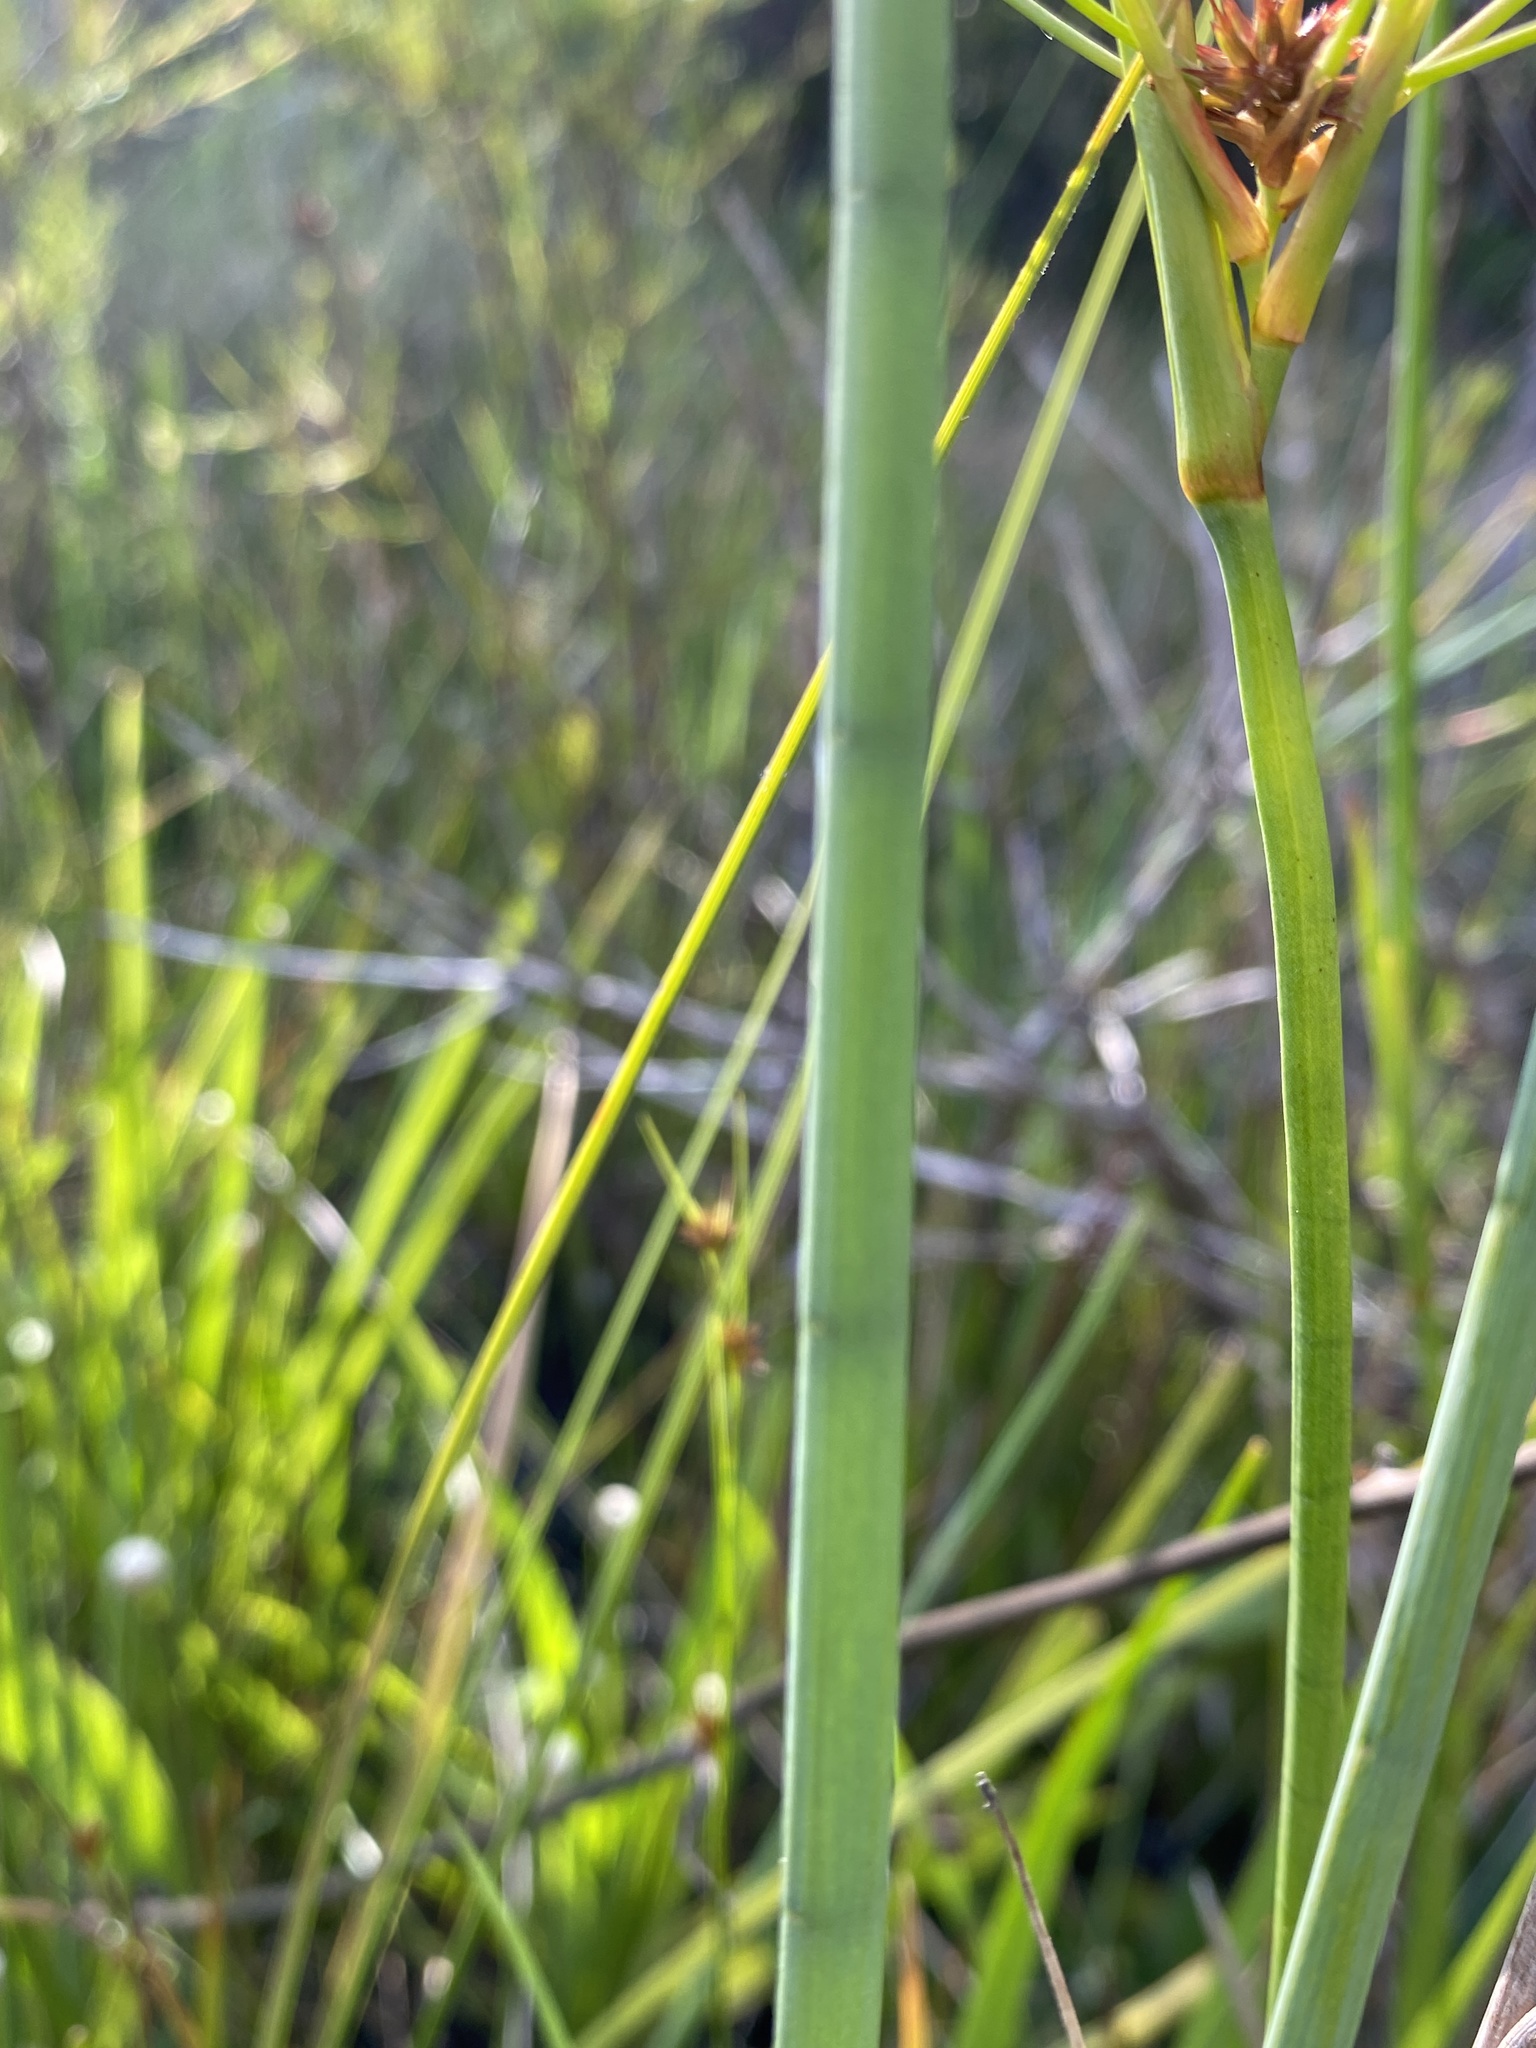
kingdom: Plantae
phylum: Tracheophyta
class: Magnoliopsida
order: Apiales
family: Apiaceae
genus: Tiedemannia
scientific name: Tiedemannia filiformis
